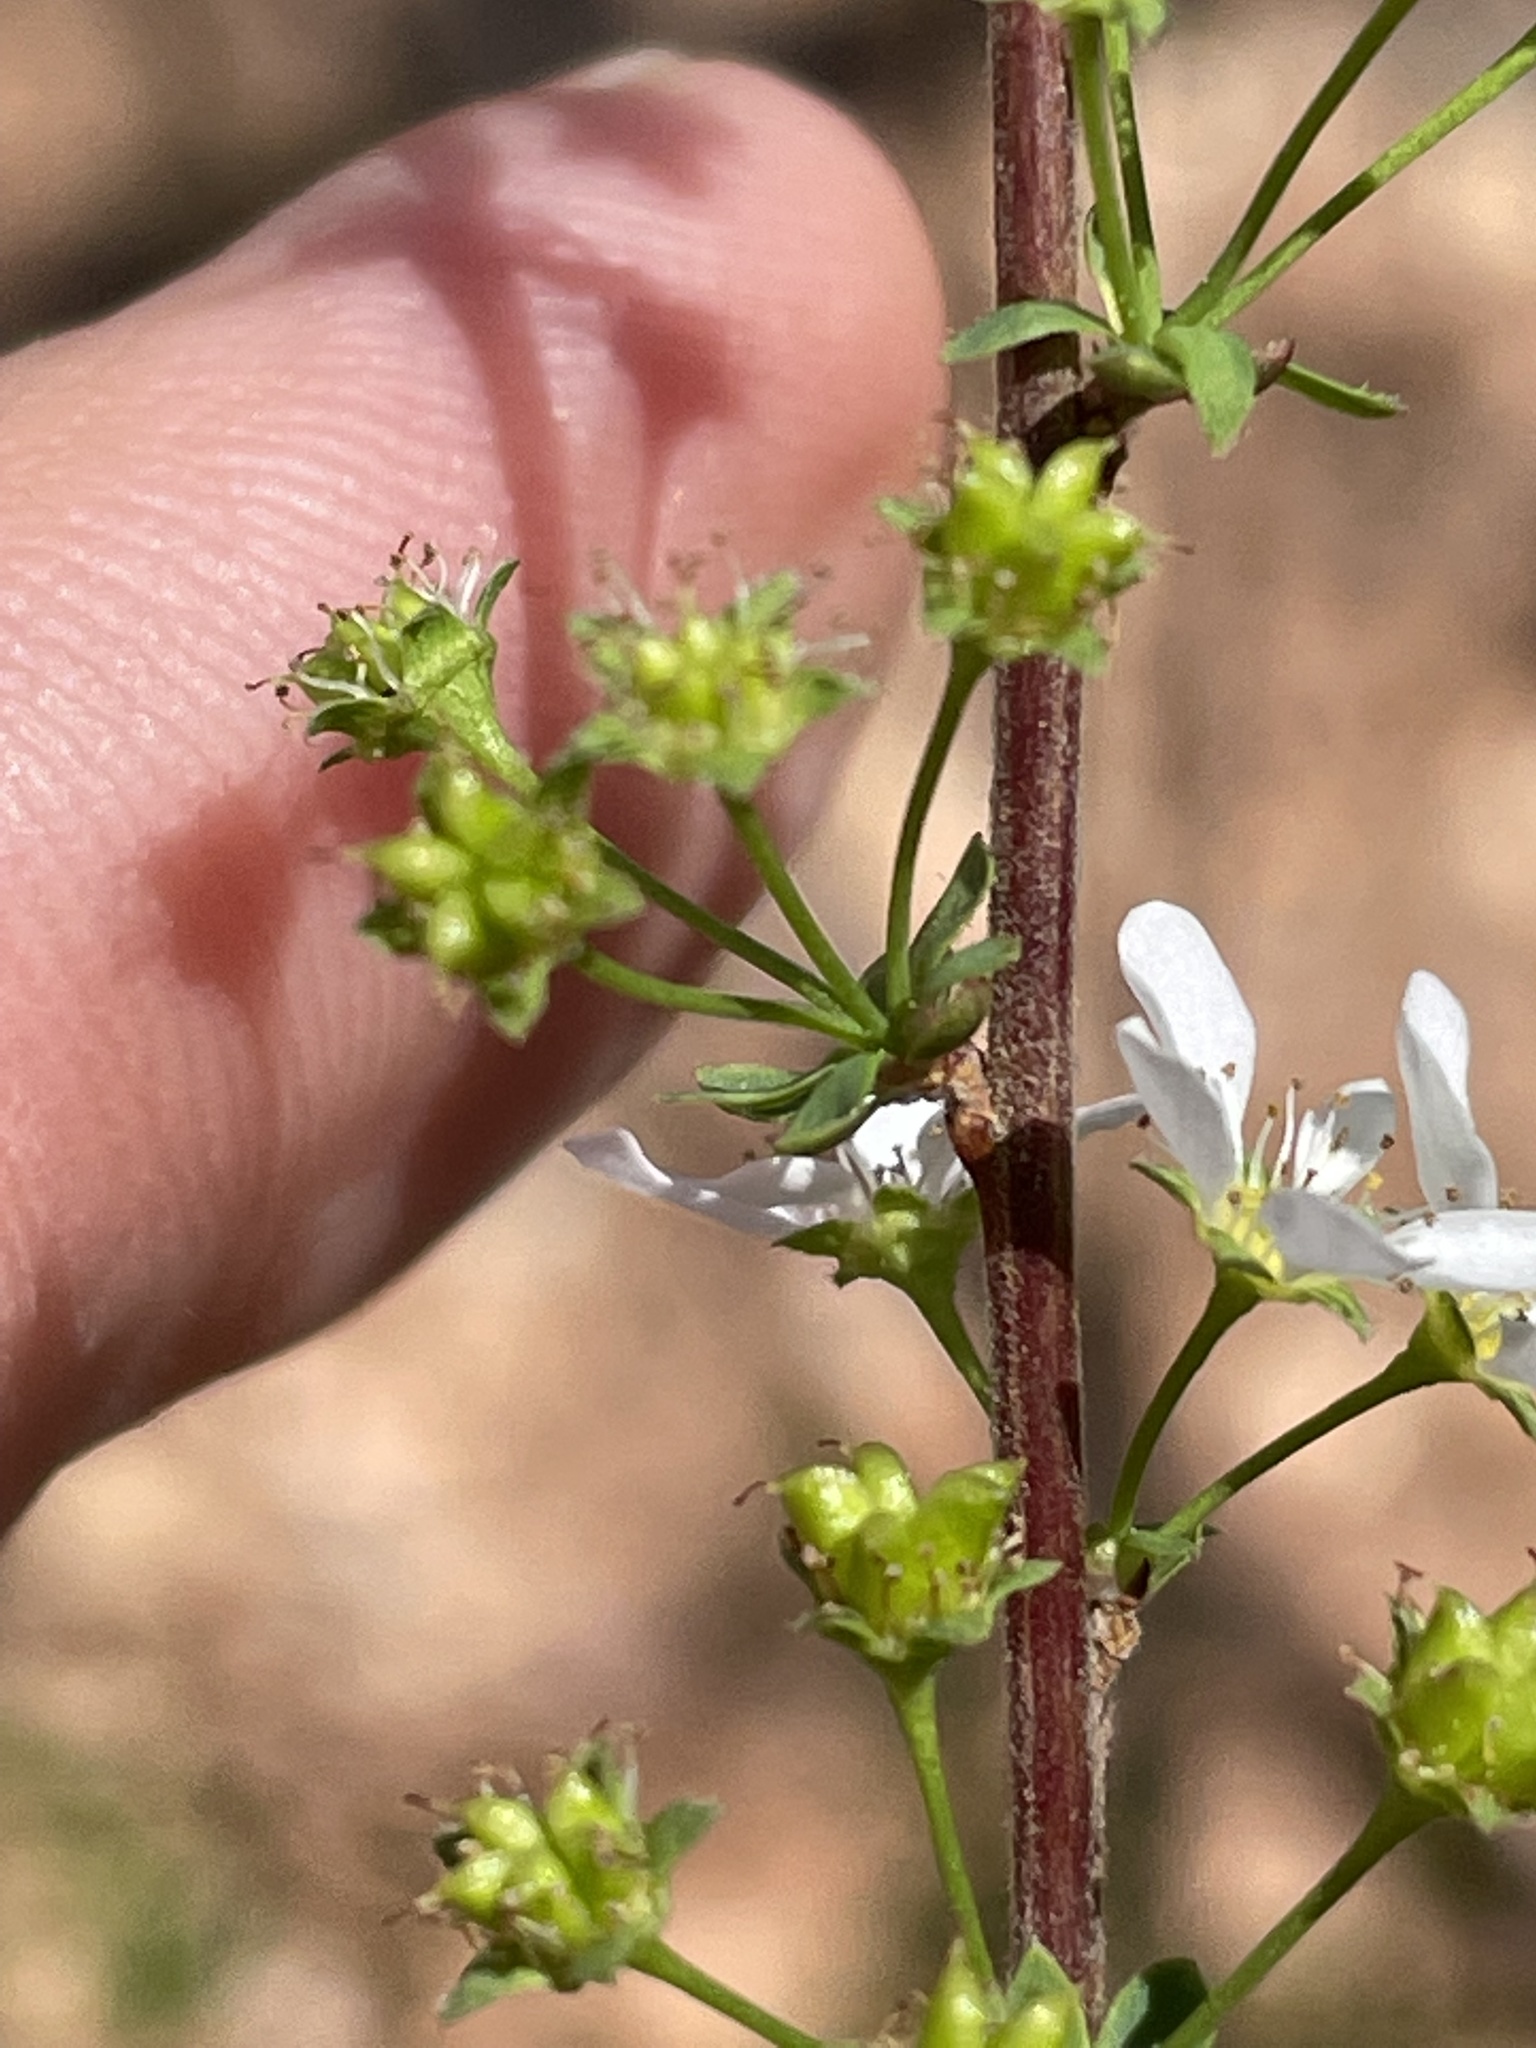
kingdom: Plantae
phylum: Tracheophyta
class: Magnoliopsida
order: Rosales
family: Rosaceae
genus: Spiraea
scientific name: Spiraea thunbergii
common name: Thunberg's meadowsweet
